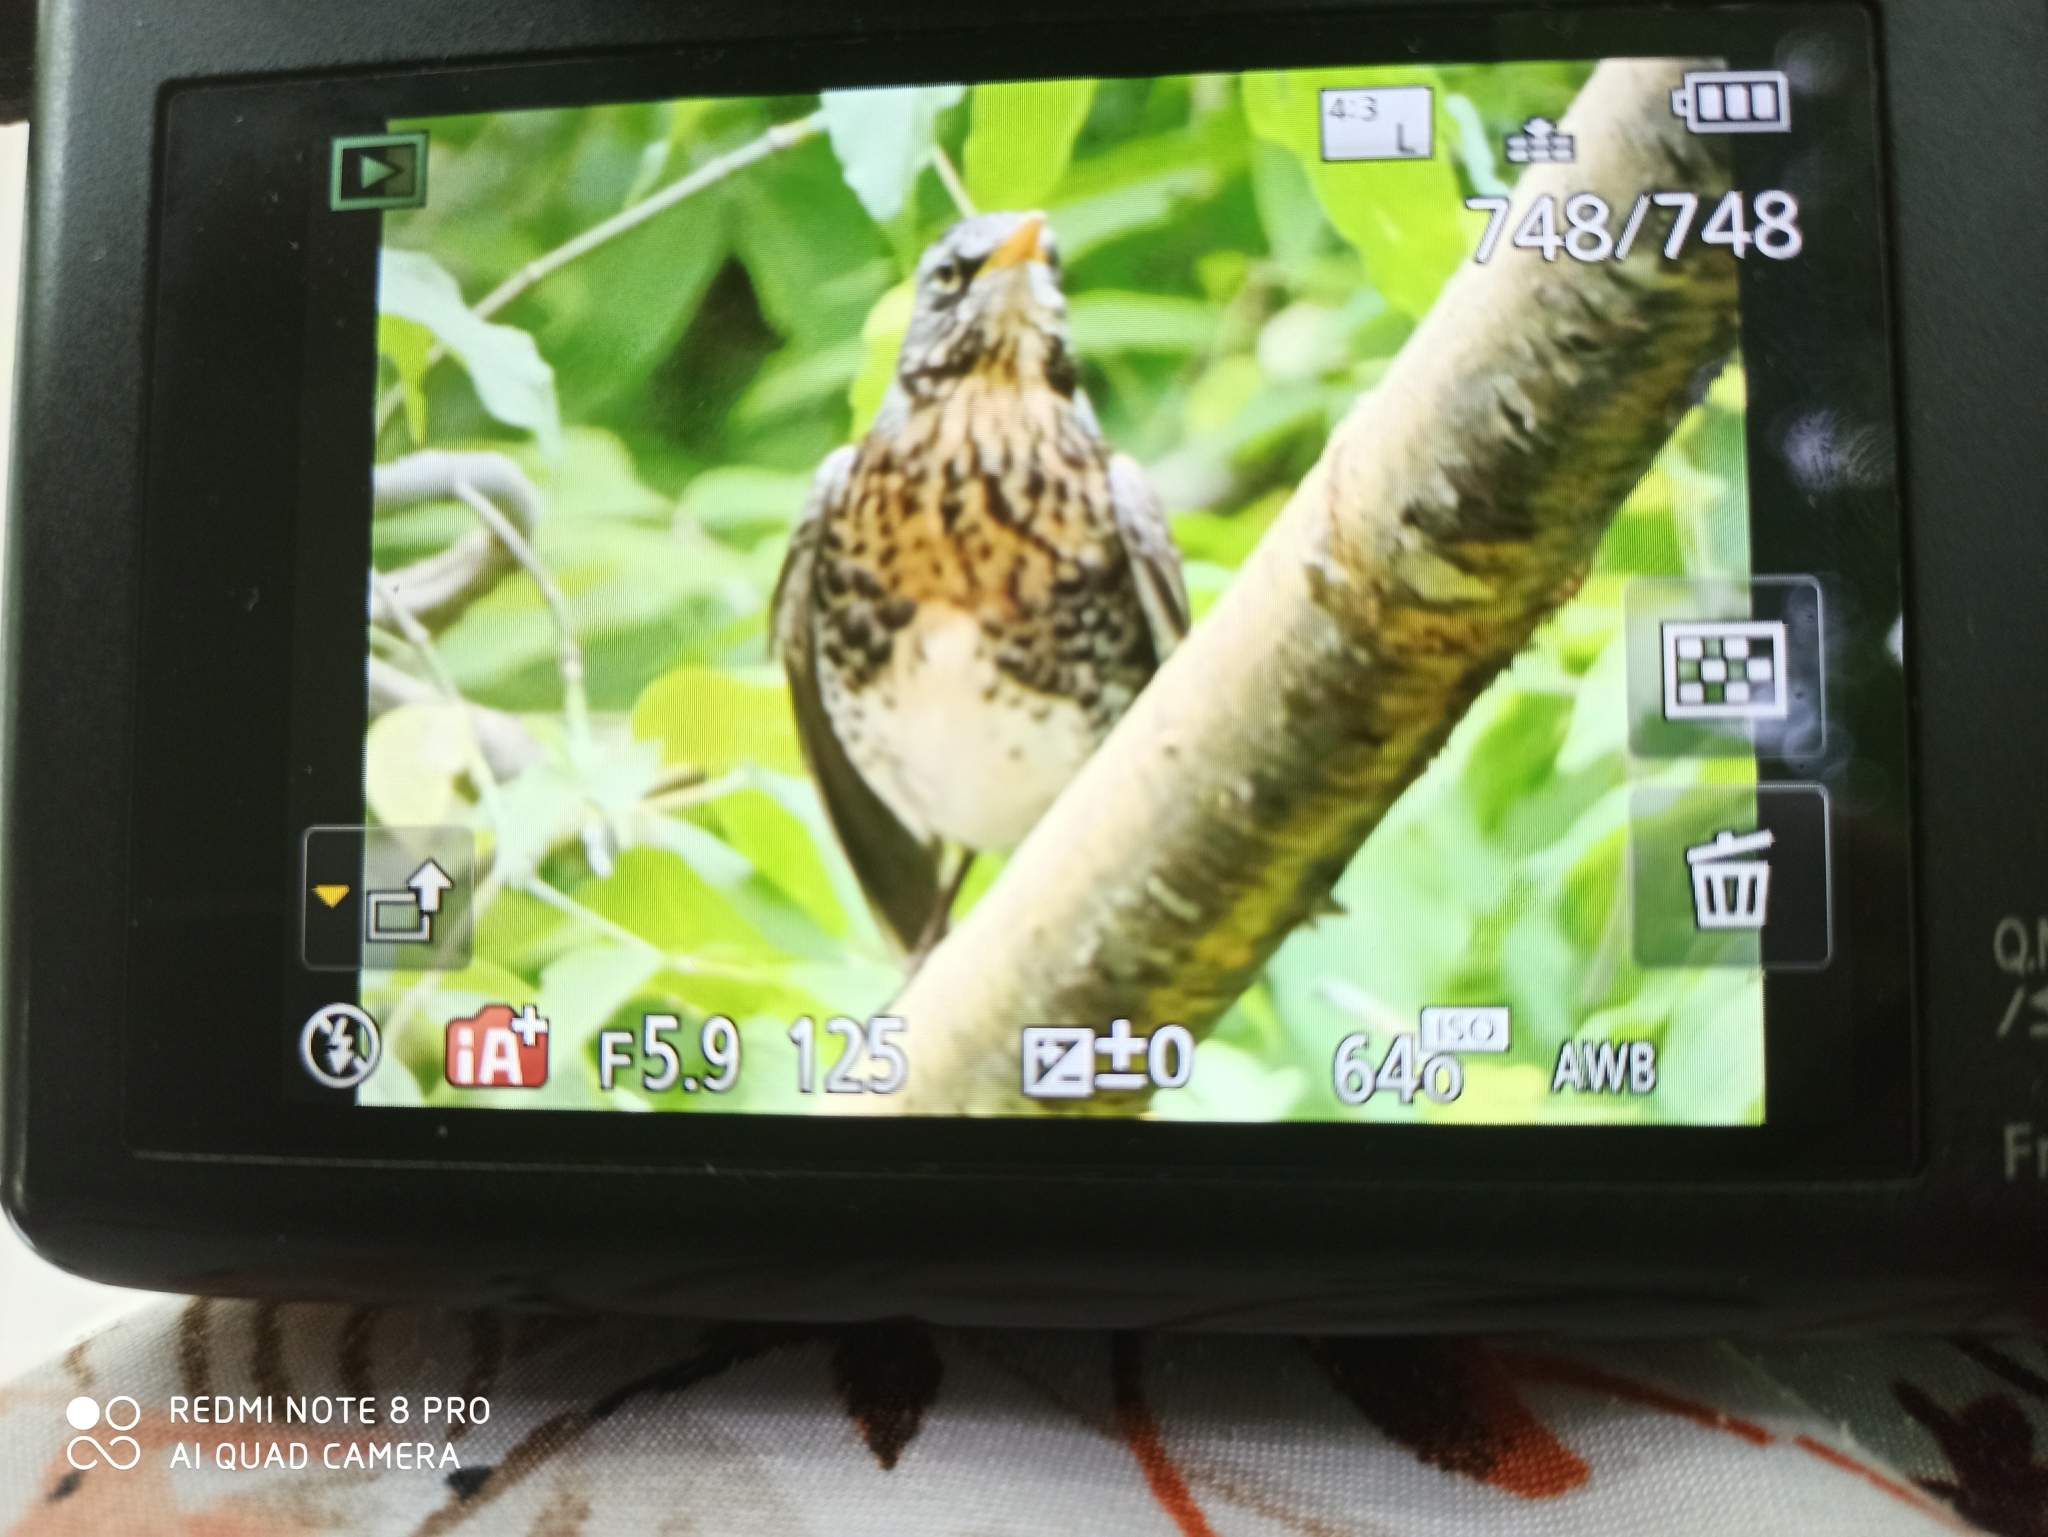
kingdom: Animalia
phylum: Chordata
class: Aves
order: Passeriformes
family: Turdidae
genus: Turdus
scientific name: Turdus pilaris
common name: Fieldfare
